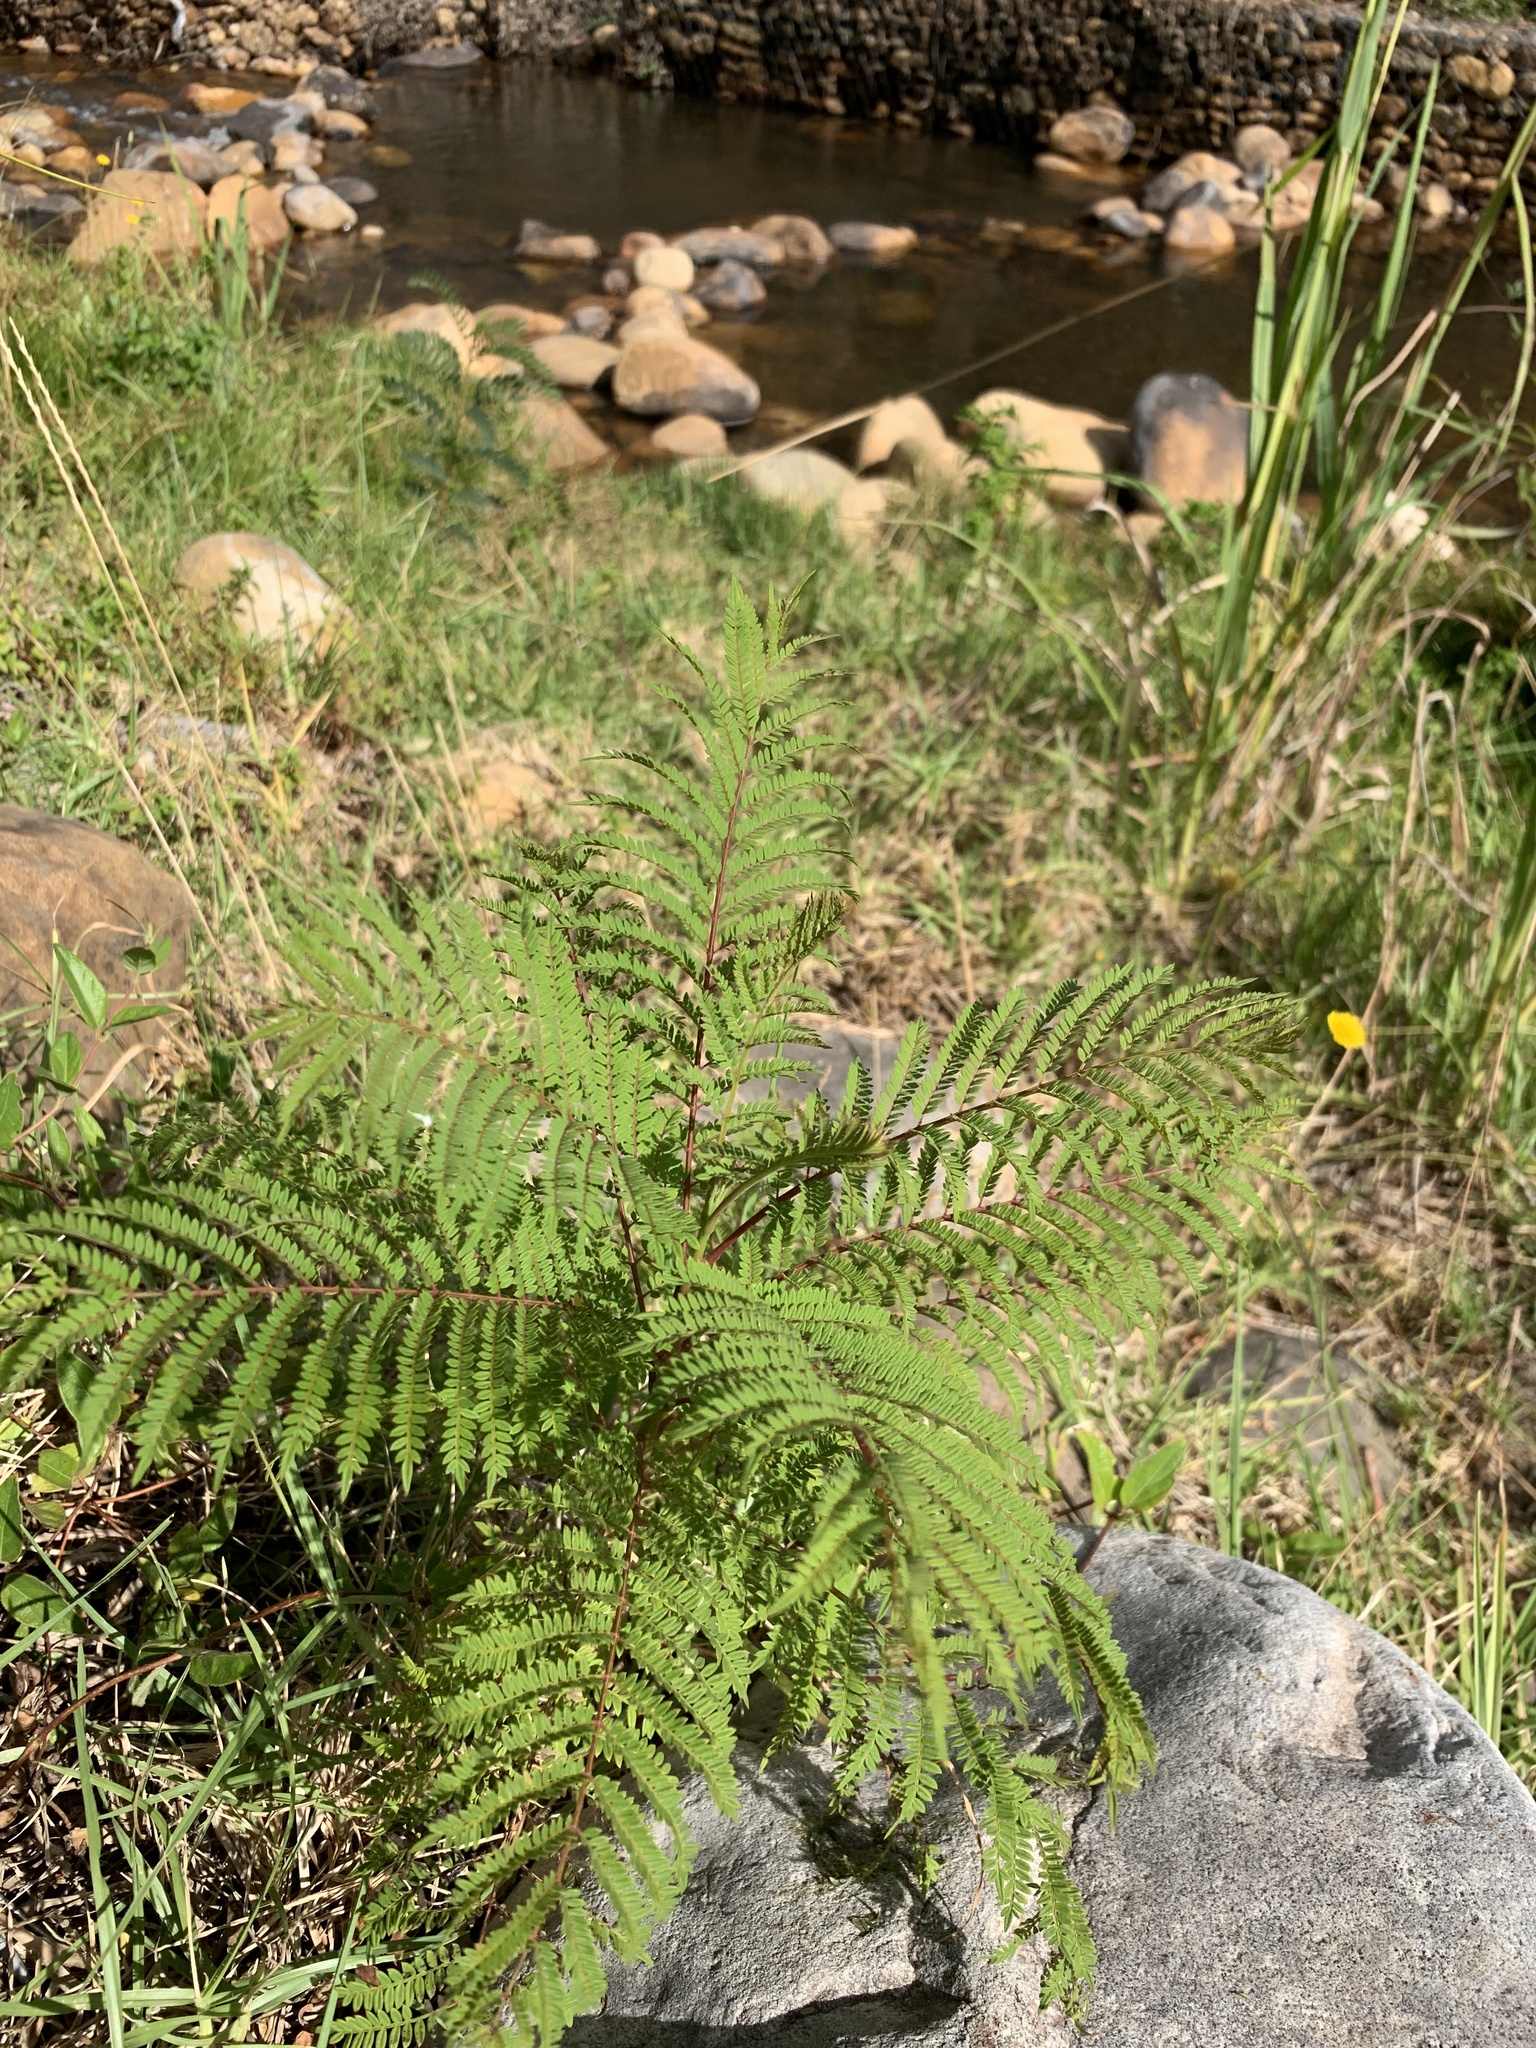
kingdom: Plantae
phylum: Tracheophyta
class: Magnoliopsida
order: Lamiales
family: Bignoniaceae
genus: Jacaranda
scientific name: Jacaranda mimosifolia
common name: Black poui
